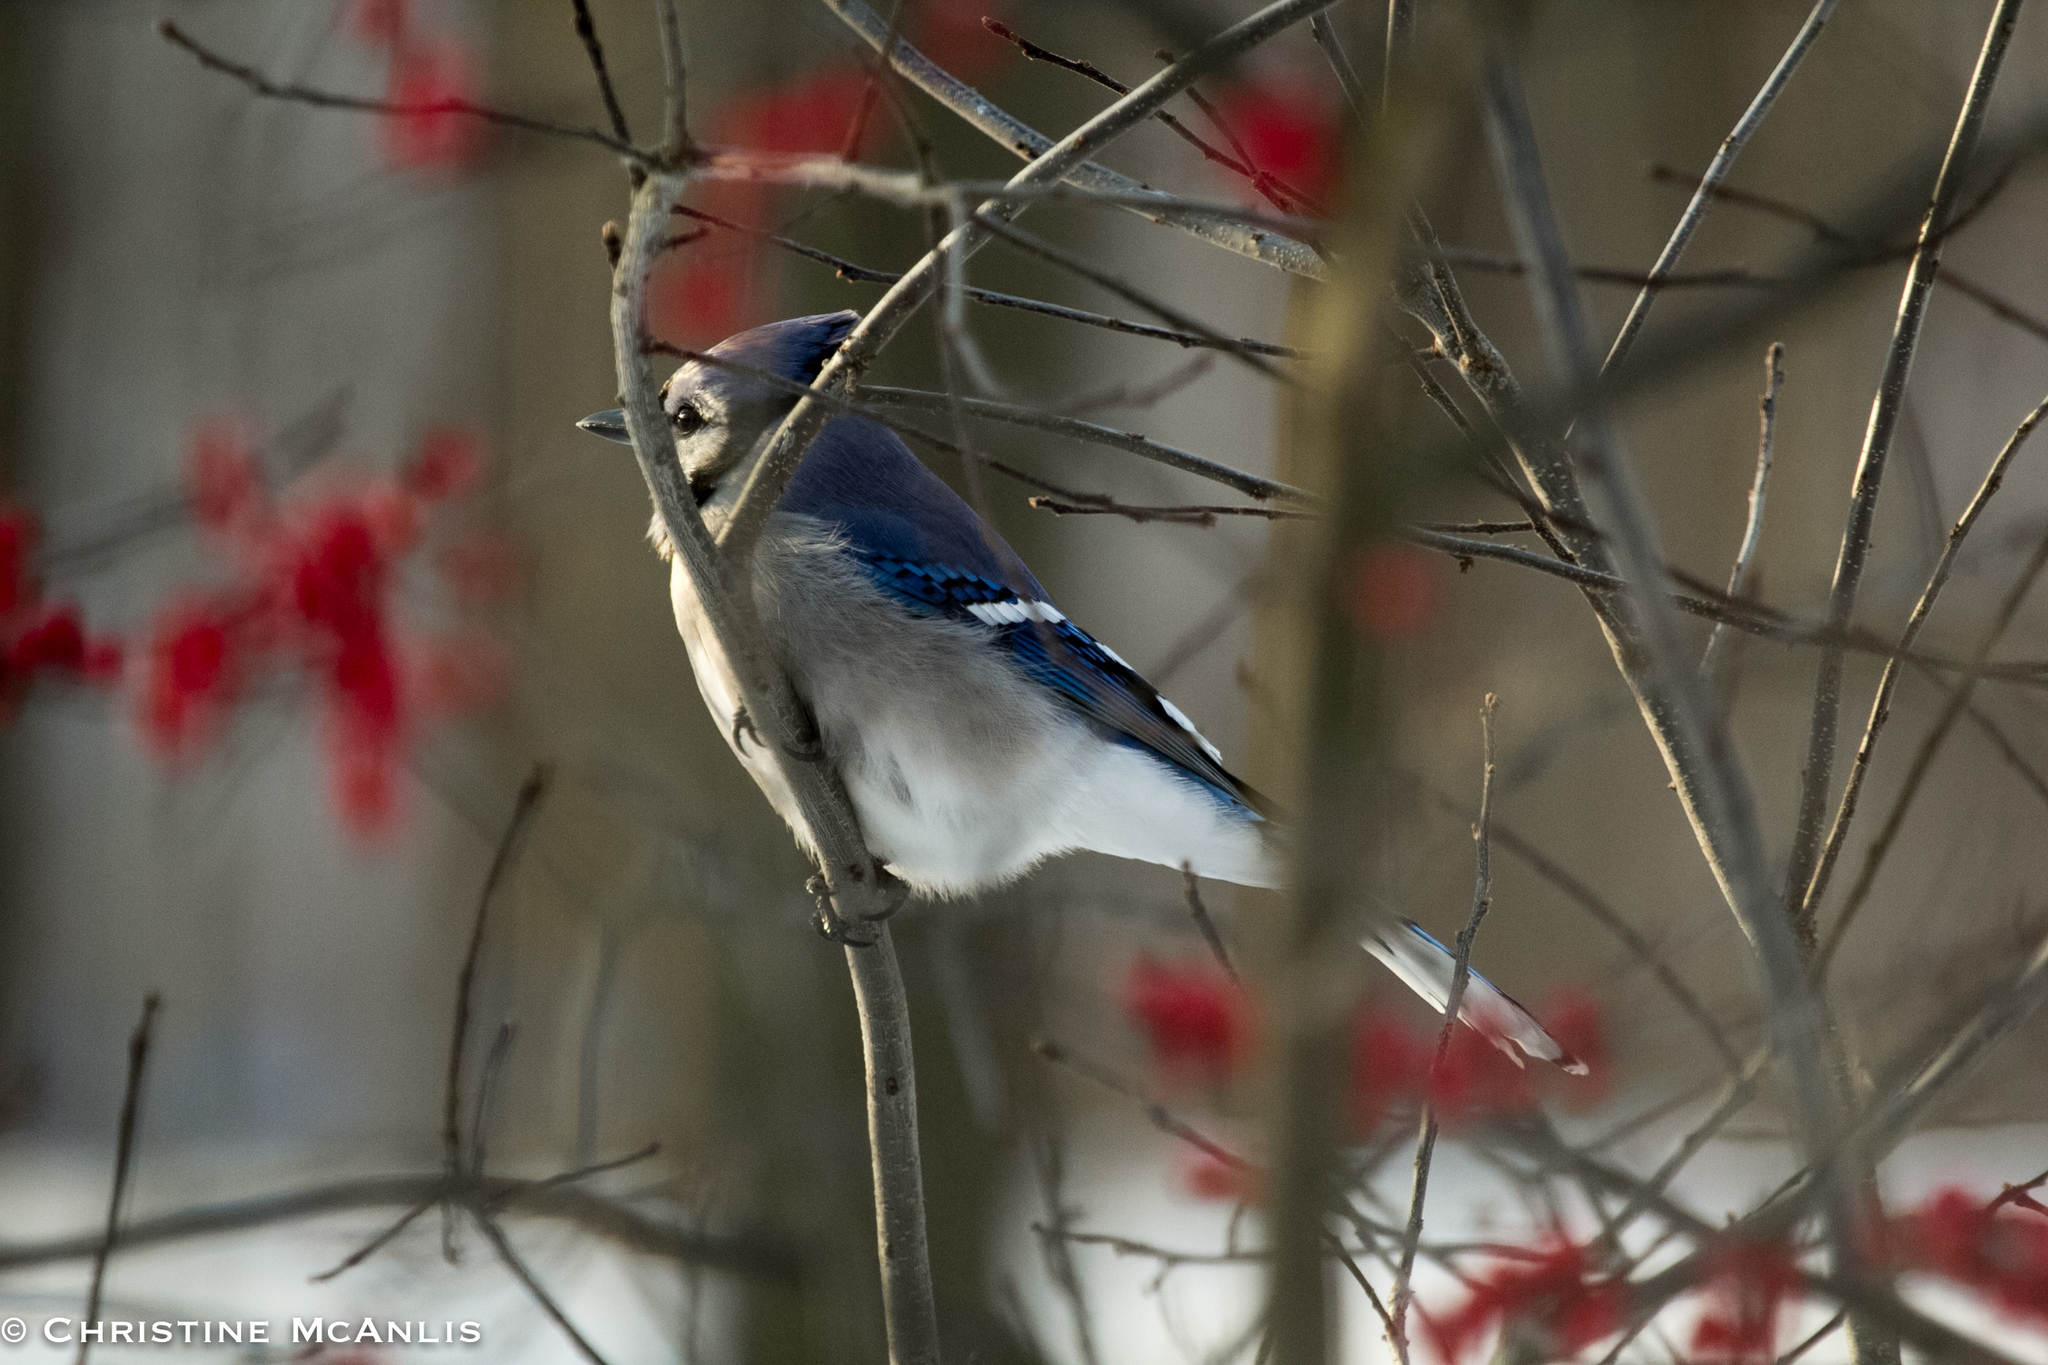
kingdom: Animalia
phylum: Chordata
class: Aves
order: Passeriformes
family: Corvidae
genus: Cyanocitta
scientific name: Cyanocitta cristata
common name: Blue jay
